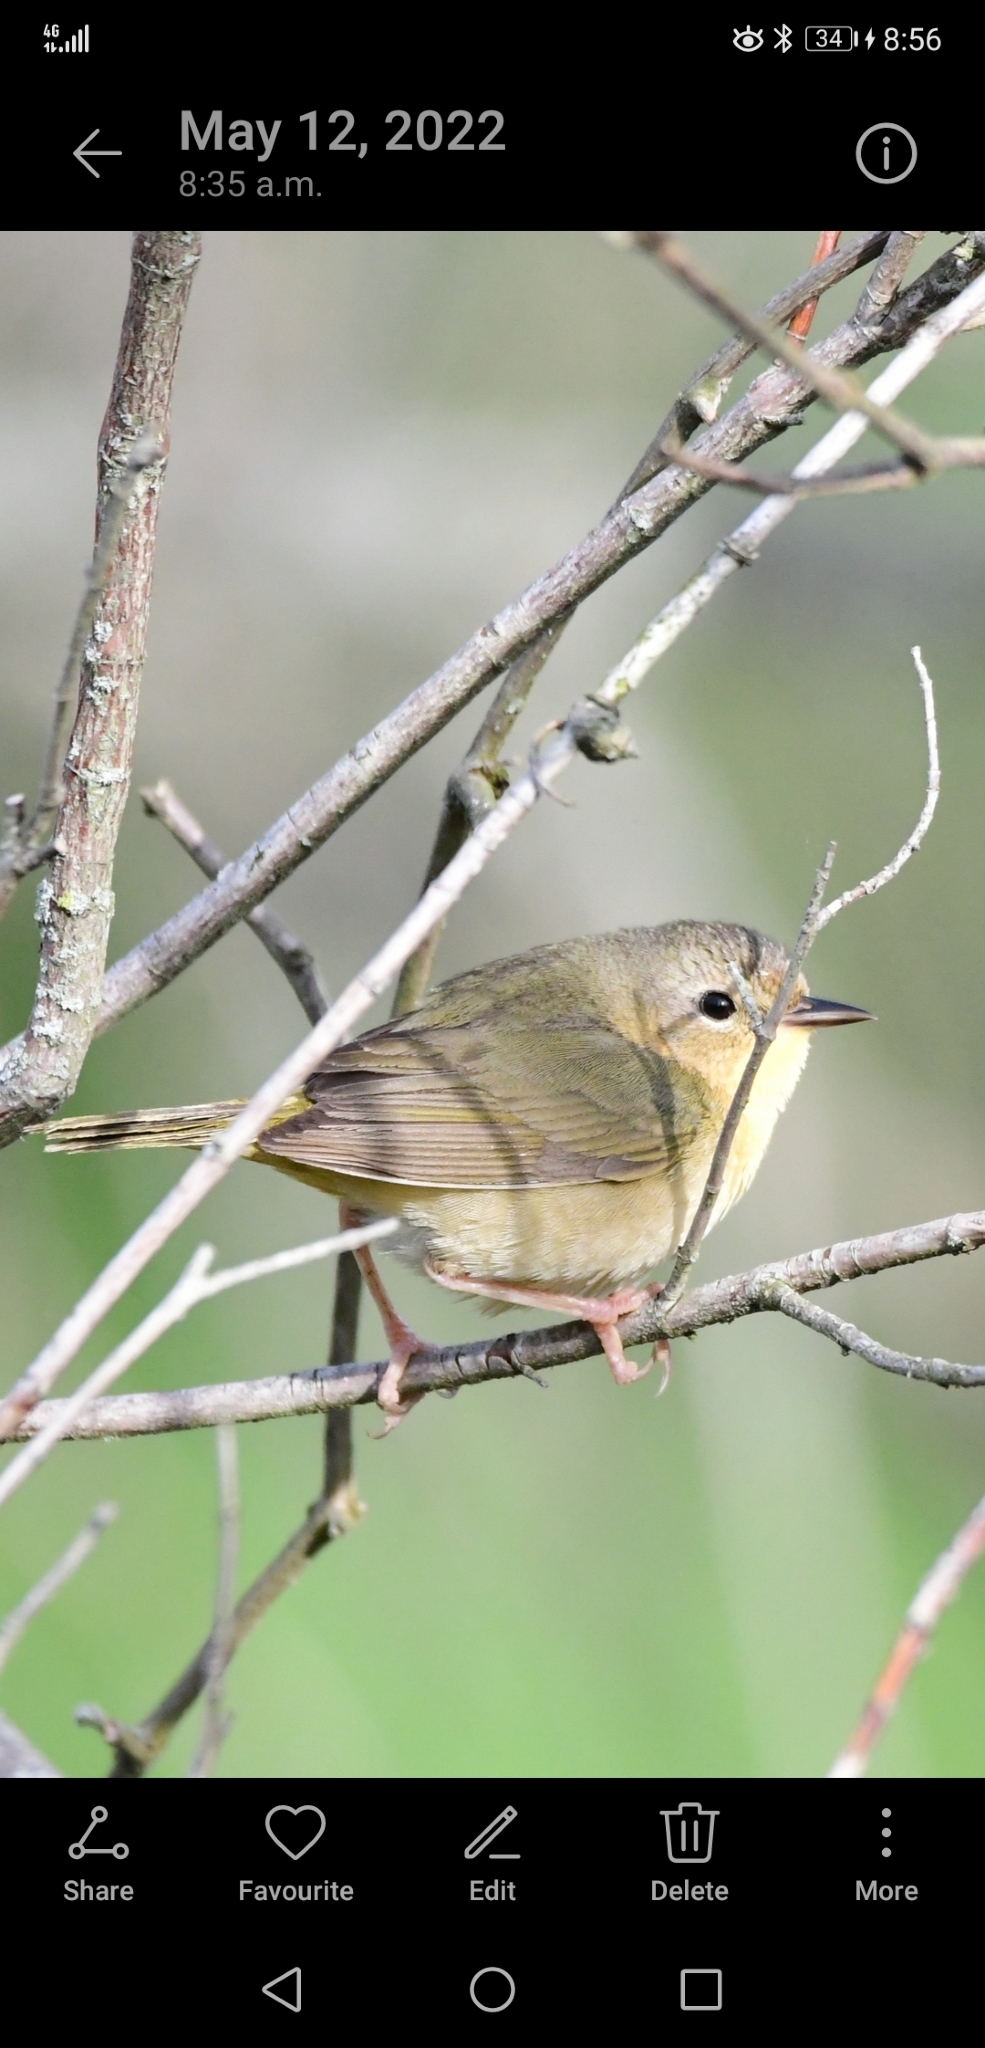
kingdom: Animalia
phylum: Chordata
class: Aves
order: Passeriformes
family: Parulidae
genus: Geothlypis
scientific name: Geothlypis trichas
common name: Common yellowthroat
